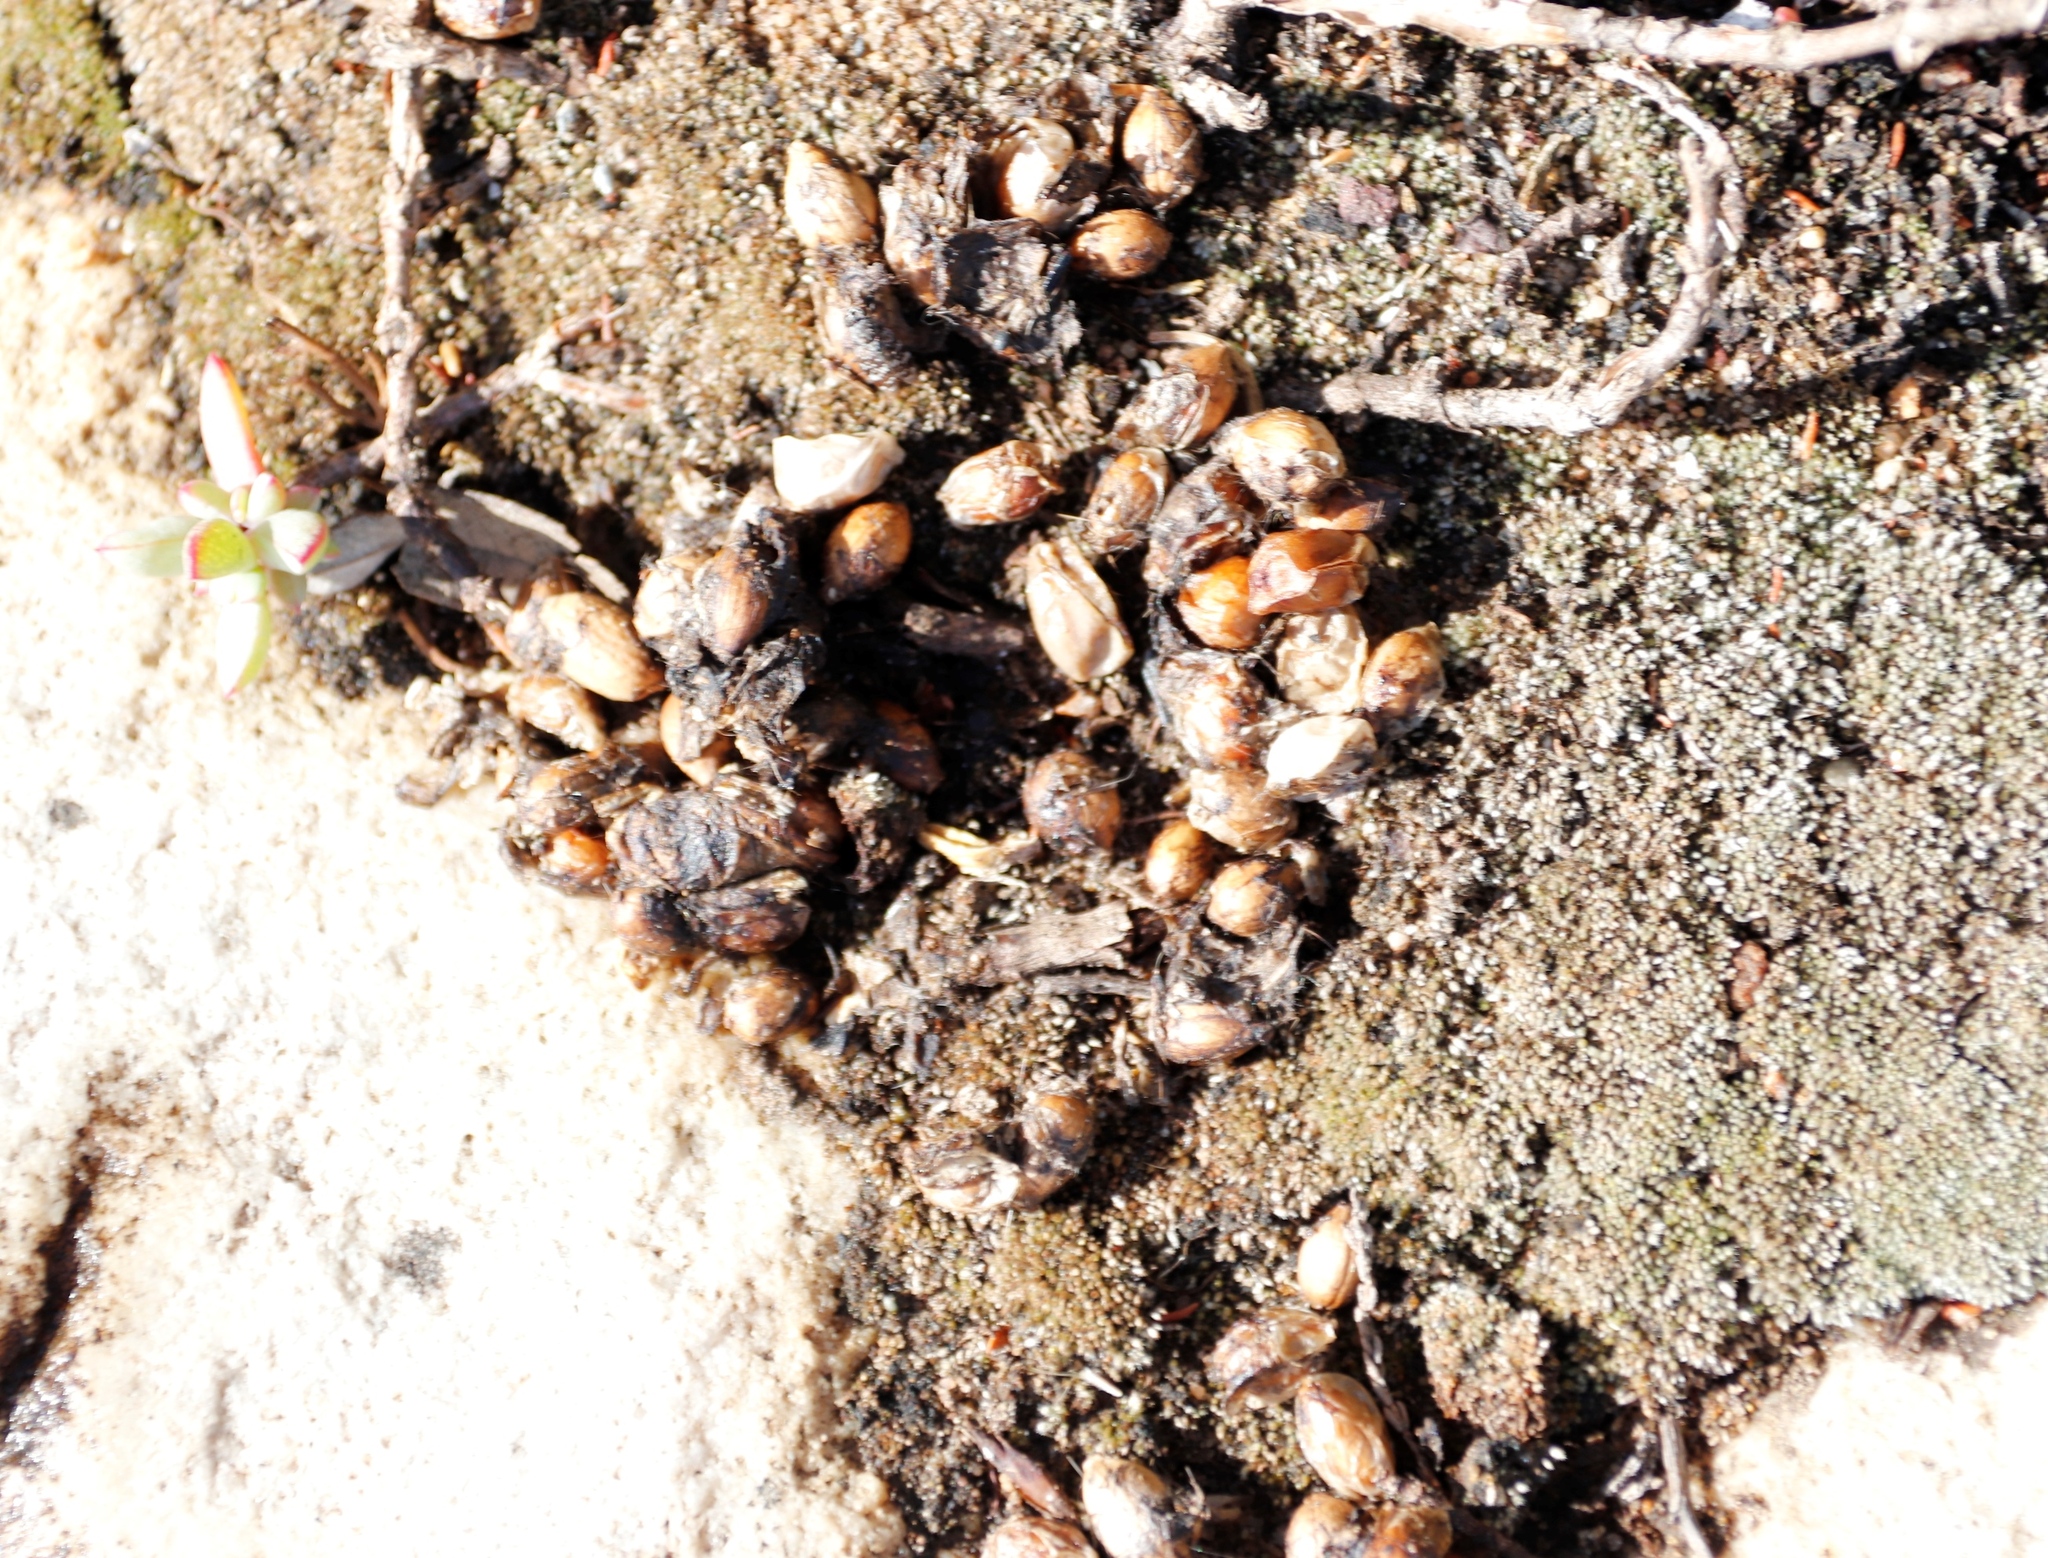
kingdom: Plantae
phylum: Bryophyta
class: Bryopsida
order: Bryales
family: Bryaceae
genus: Bryum
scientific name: Bryum argenteum
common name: Silver-moss
